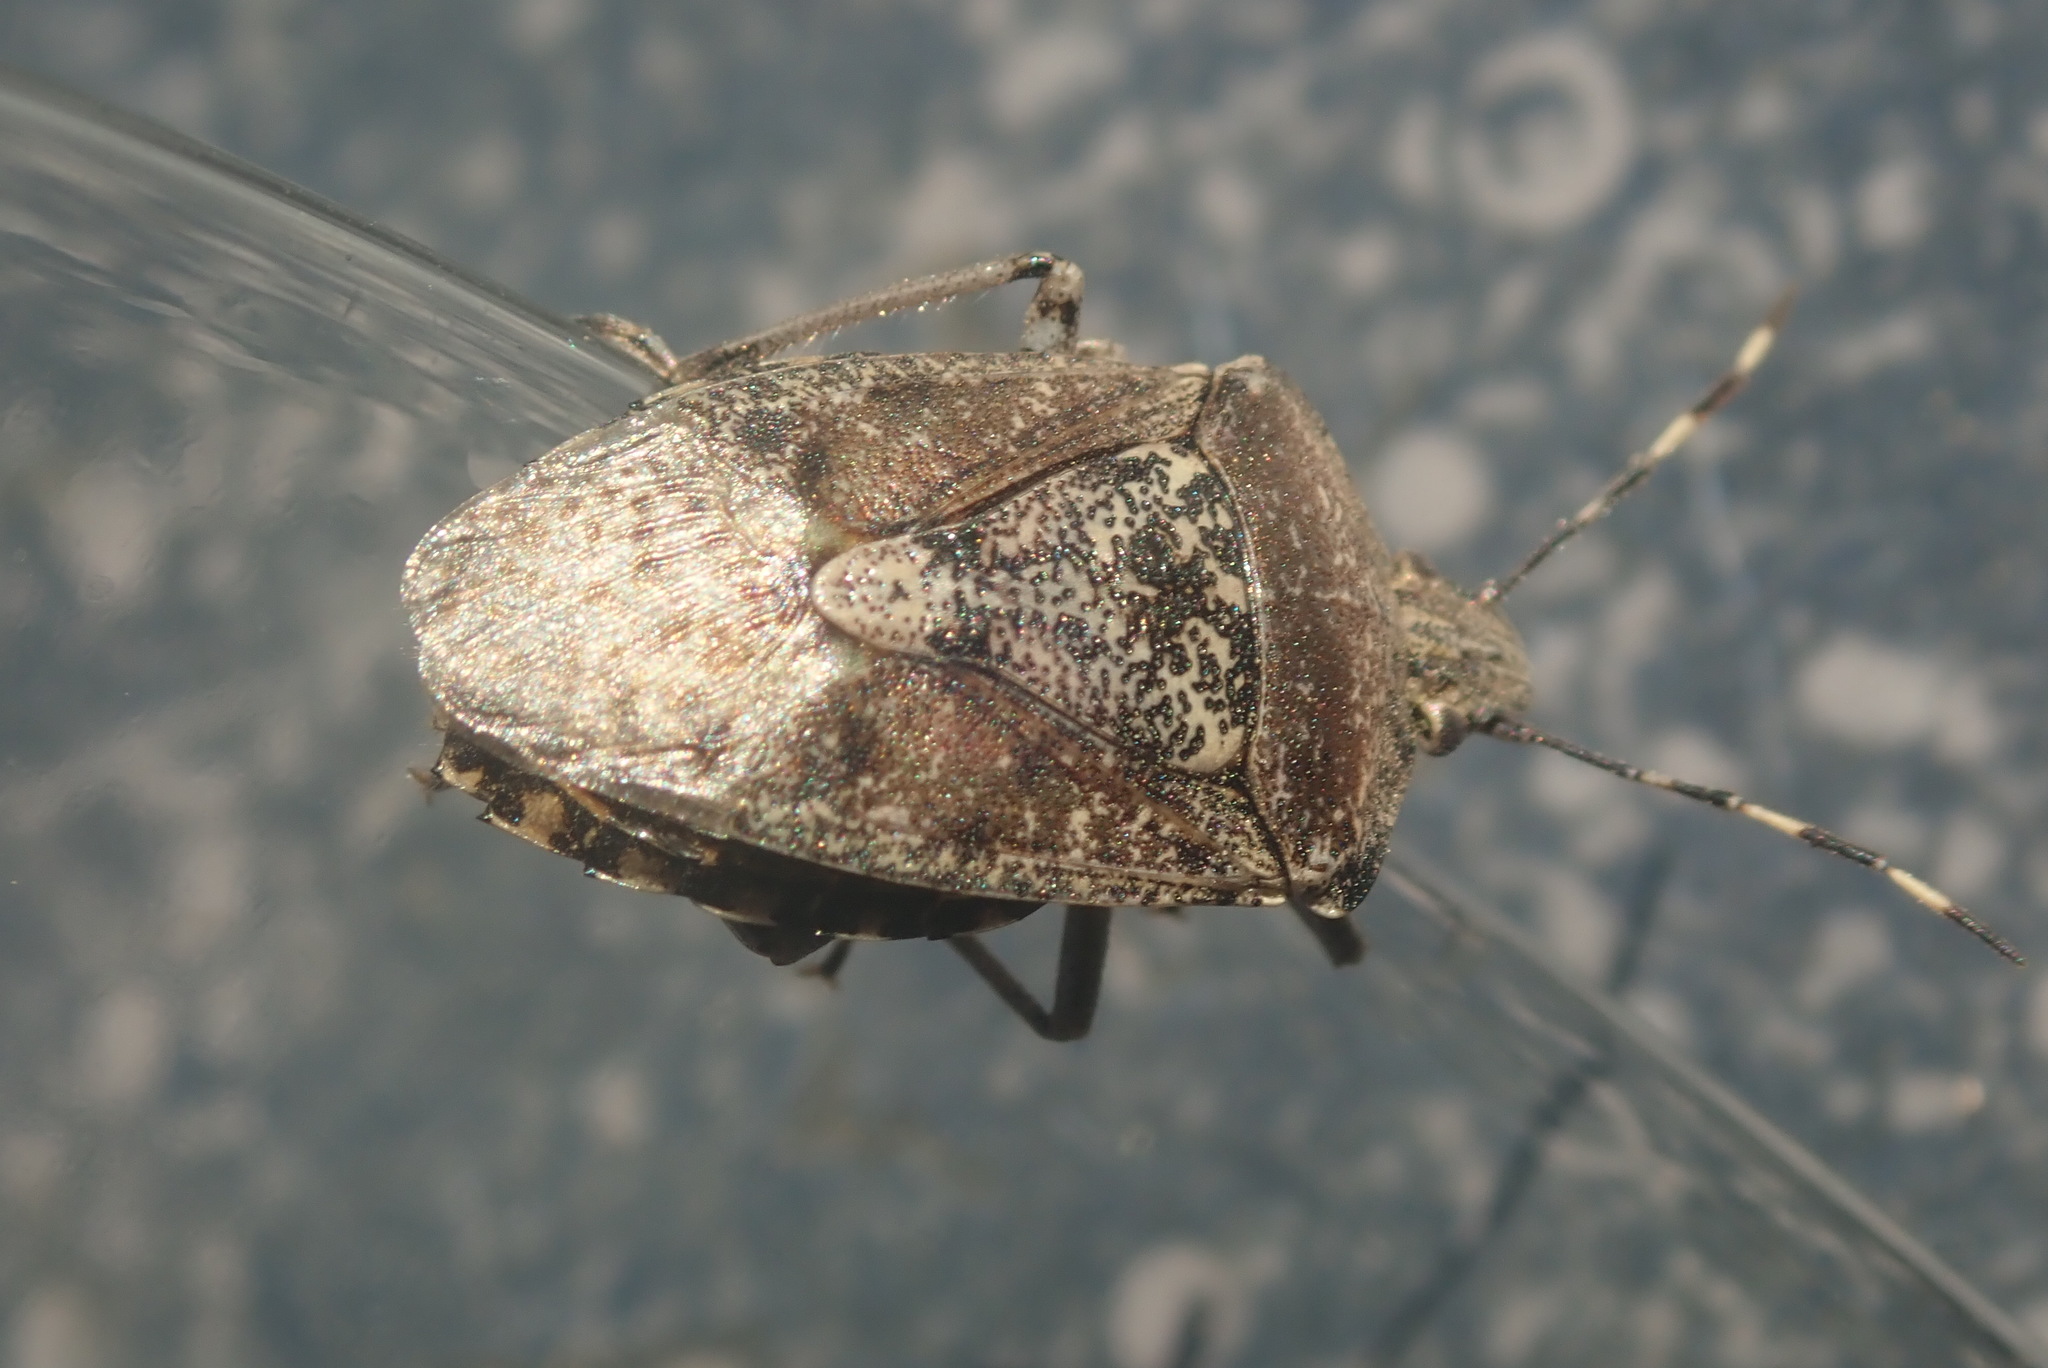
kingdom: Animalia
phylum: Arthropoda
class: Insecta
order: Hemiptera
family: Pentatomidae
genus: Rhaphigaster
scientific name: Rhaphigaster nebulosa
